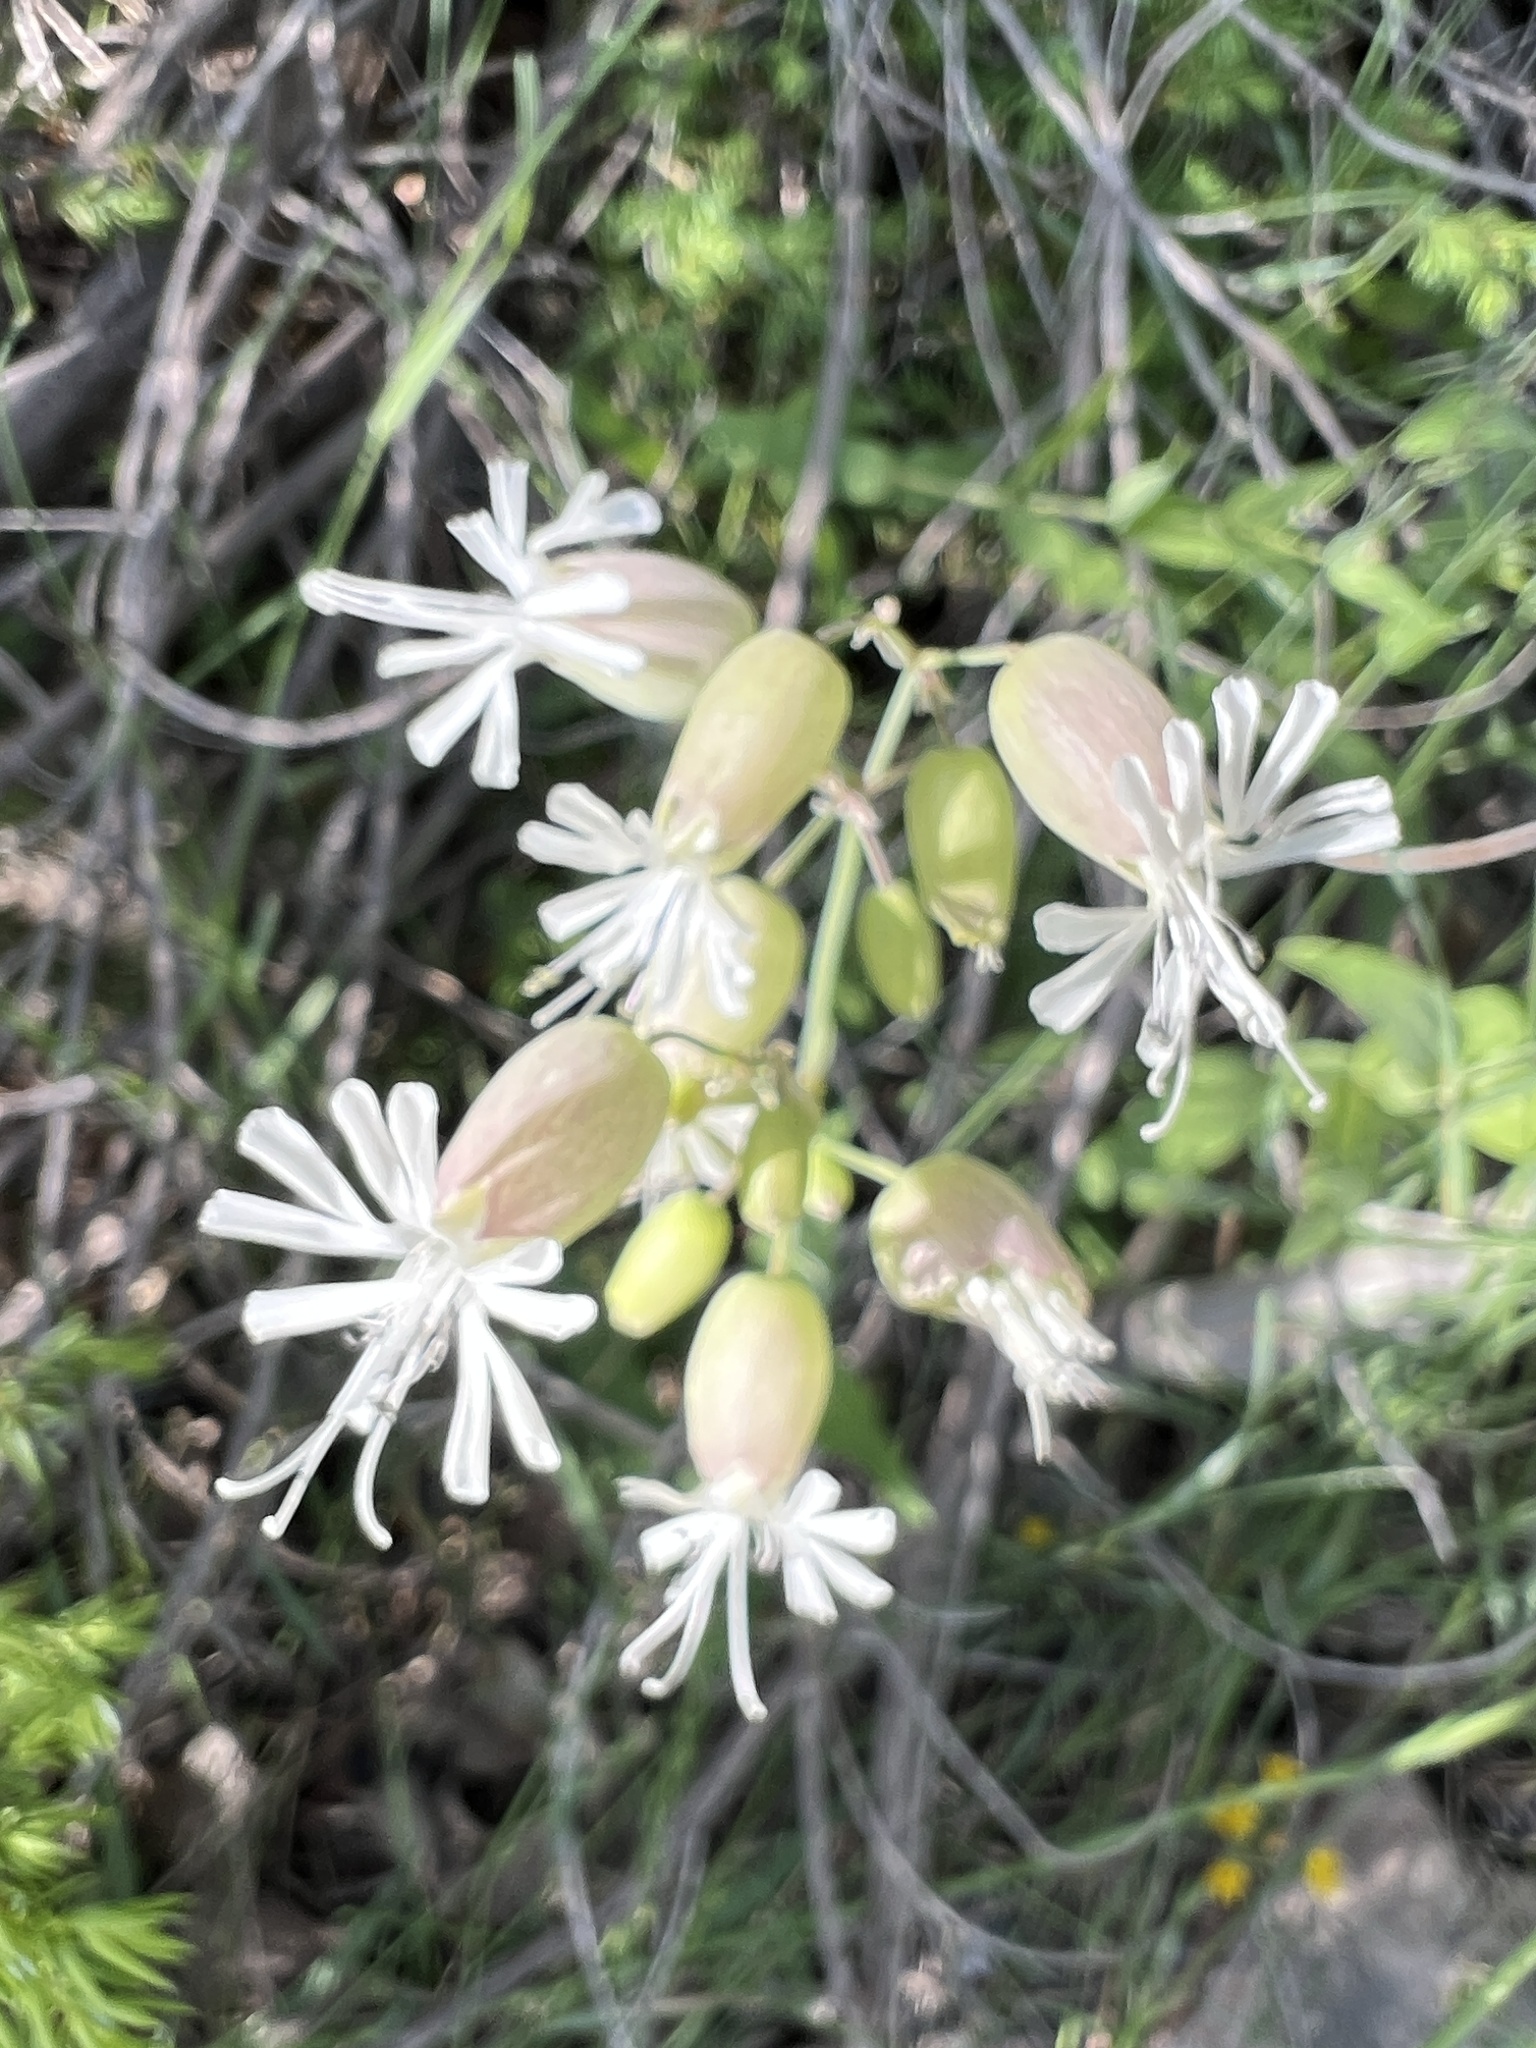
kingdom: Plantae
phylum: Tracheophyta
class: Magnoliopsida
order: Caryophyllales
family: Caryophyllaceae
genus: Silene
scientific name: Silene vulgaris
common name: Bladder campion
